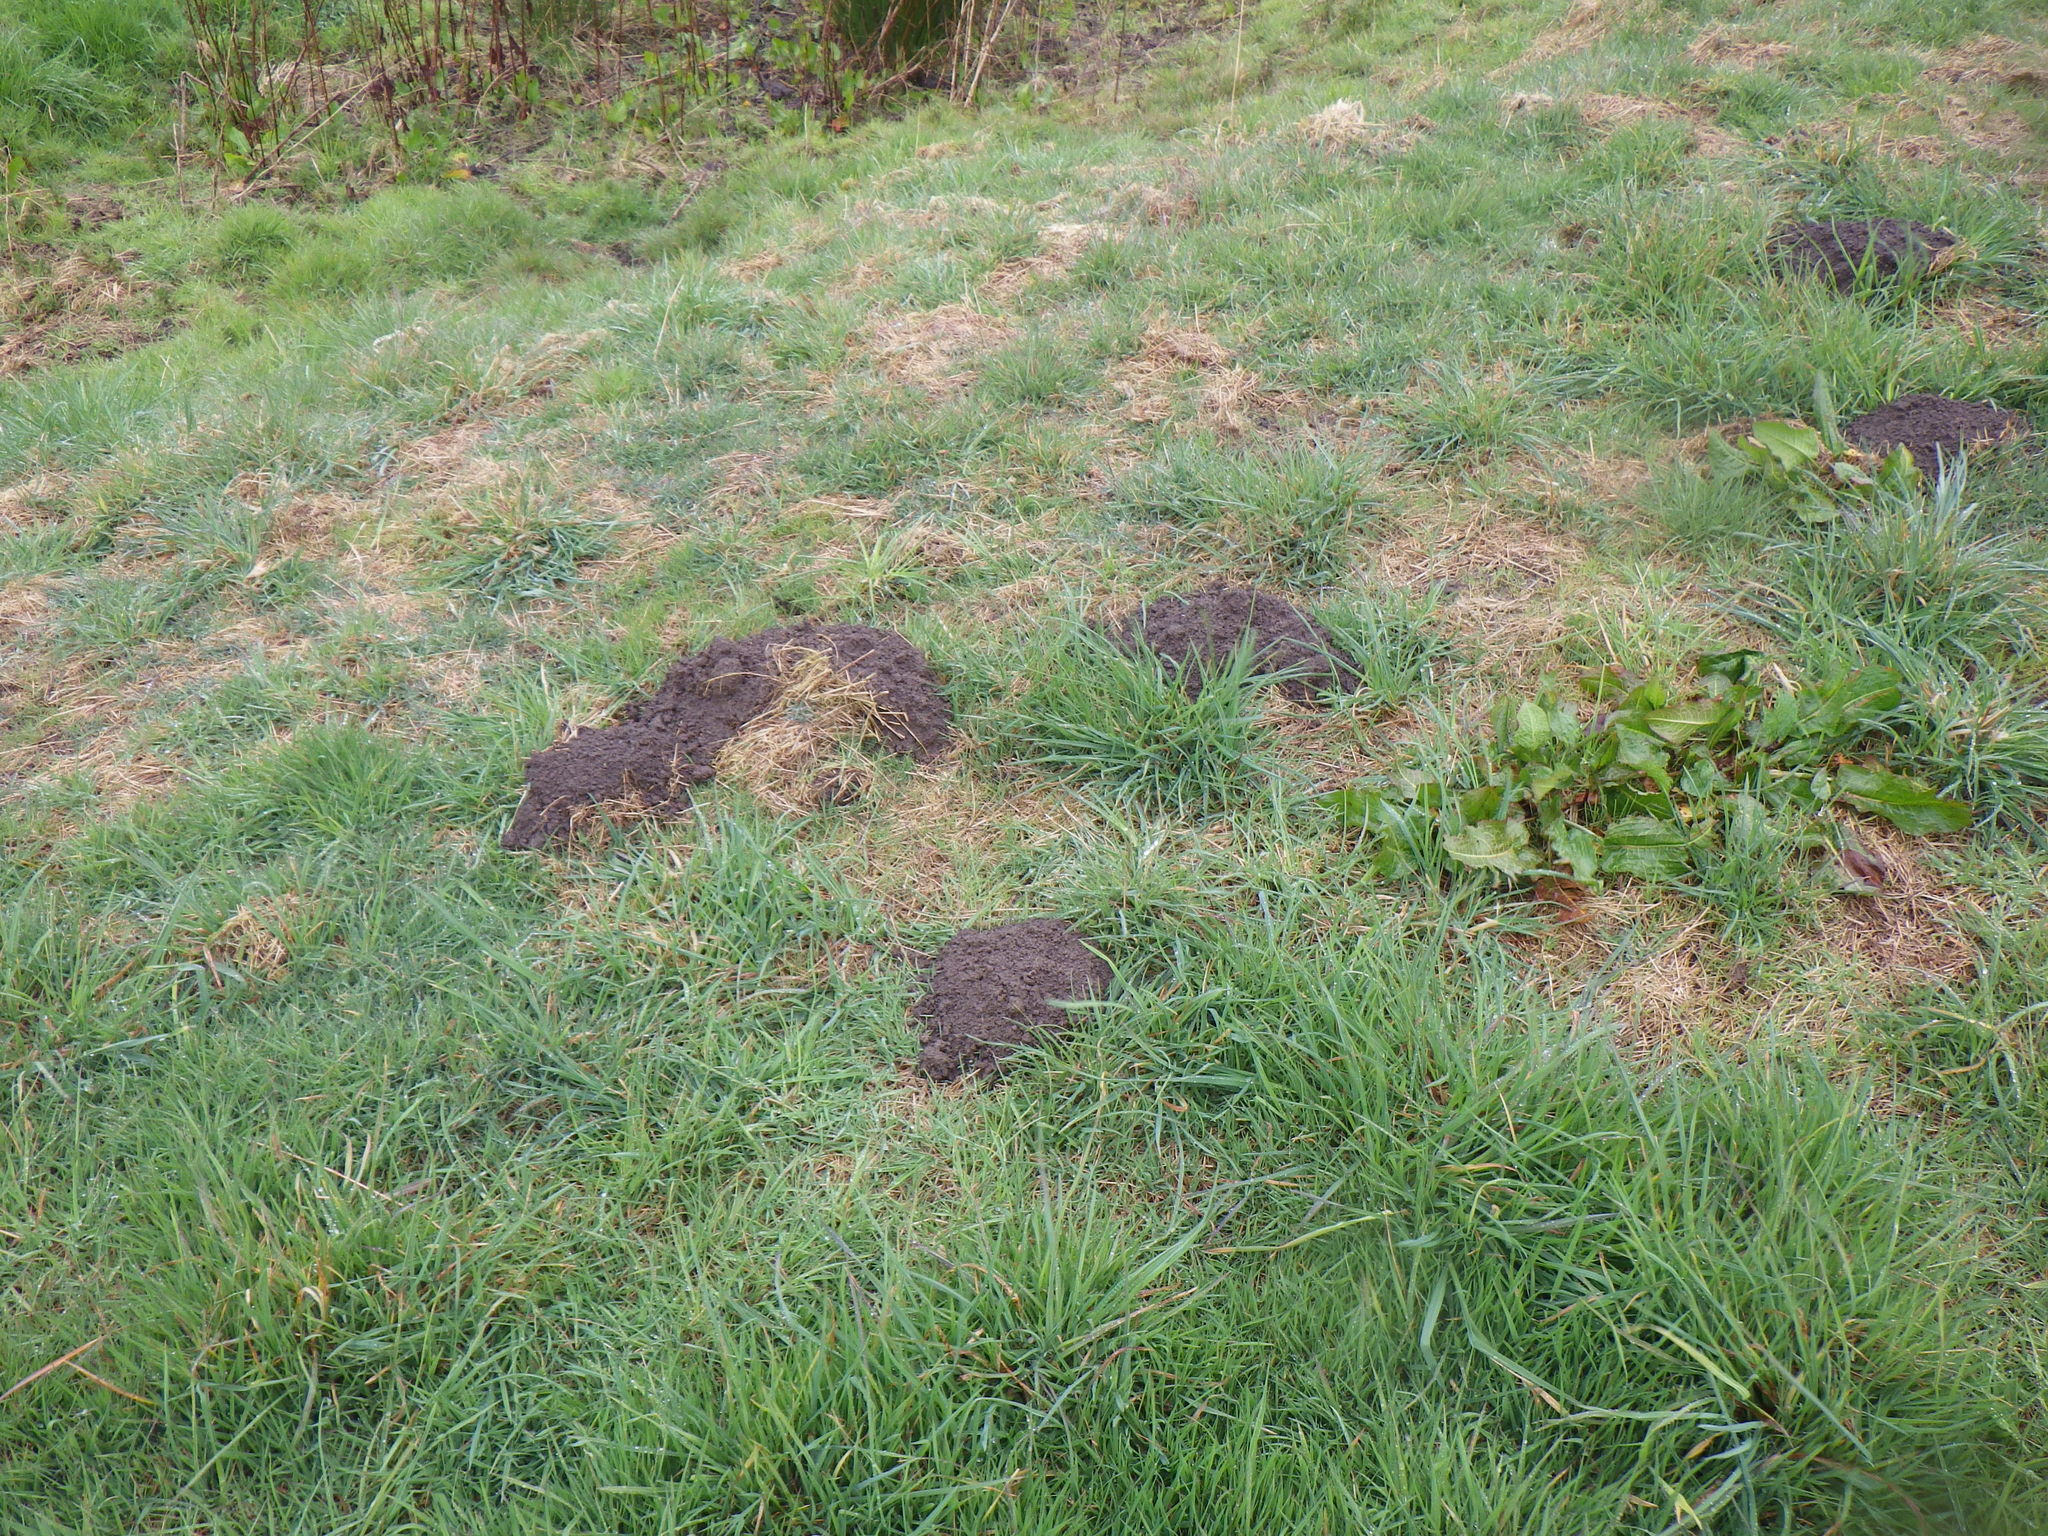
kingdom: Animalia
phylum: Chordata
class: Mammalia
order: Soricomorpha
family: Talpidae
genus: Talpa
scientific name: Talpa europaea
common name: European mole
